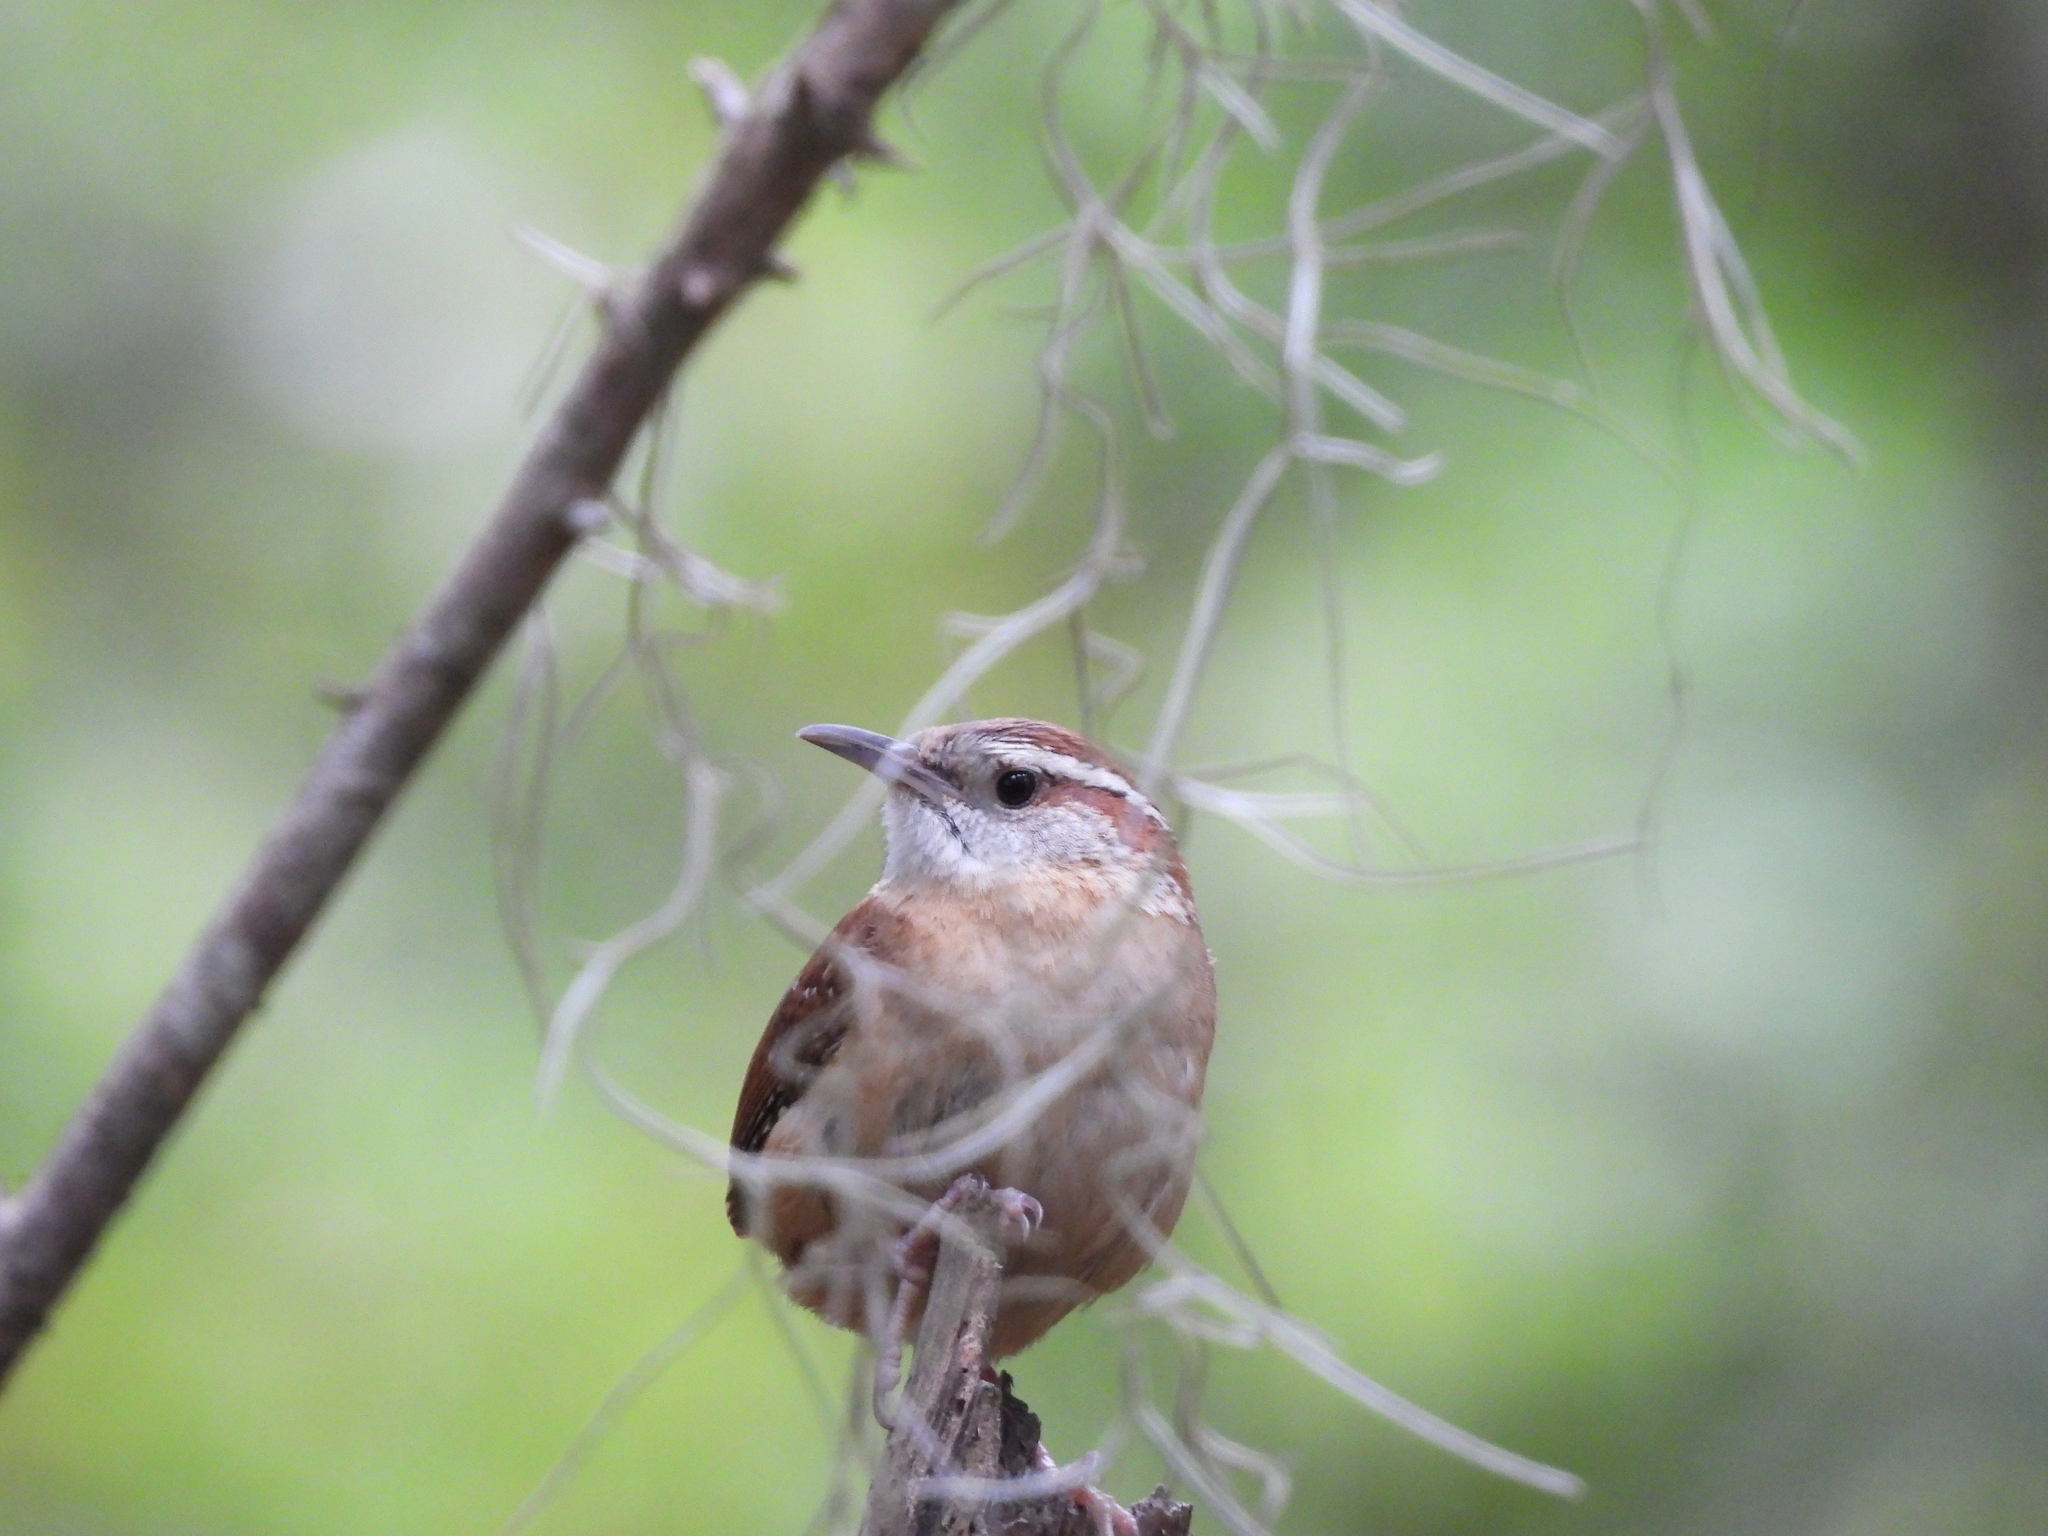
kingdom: Animalia
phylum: Chordata
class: Aves
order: Passeriformes
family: Troglodytidae
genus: Thryothorus
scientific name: Thryothorus ludovicianus
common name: Carolina wren
